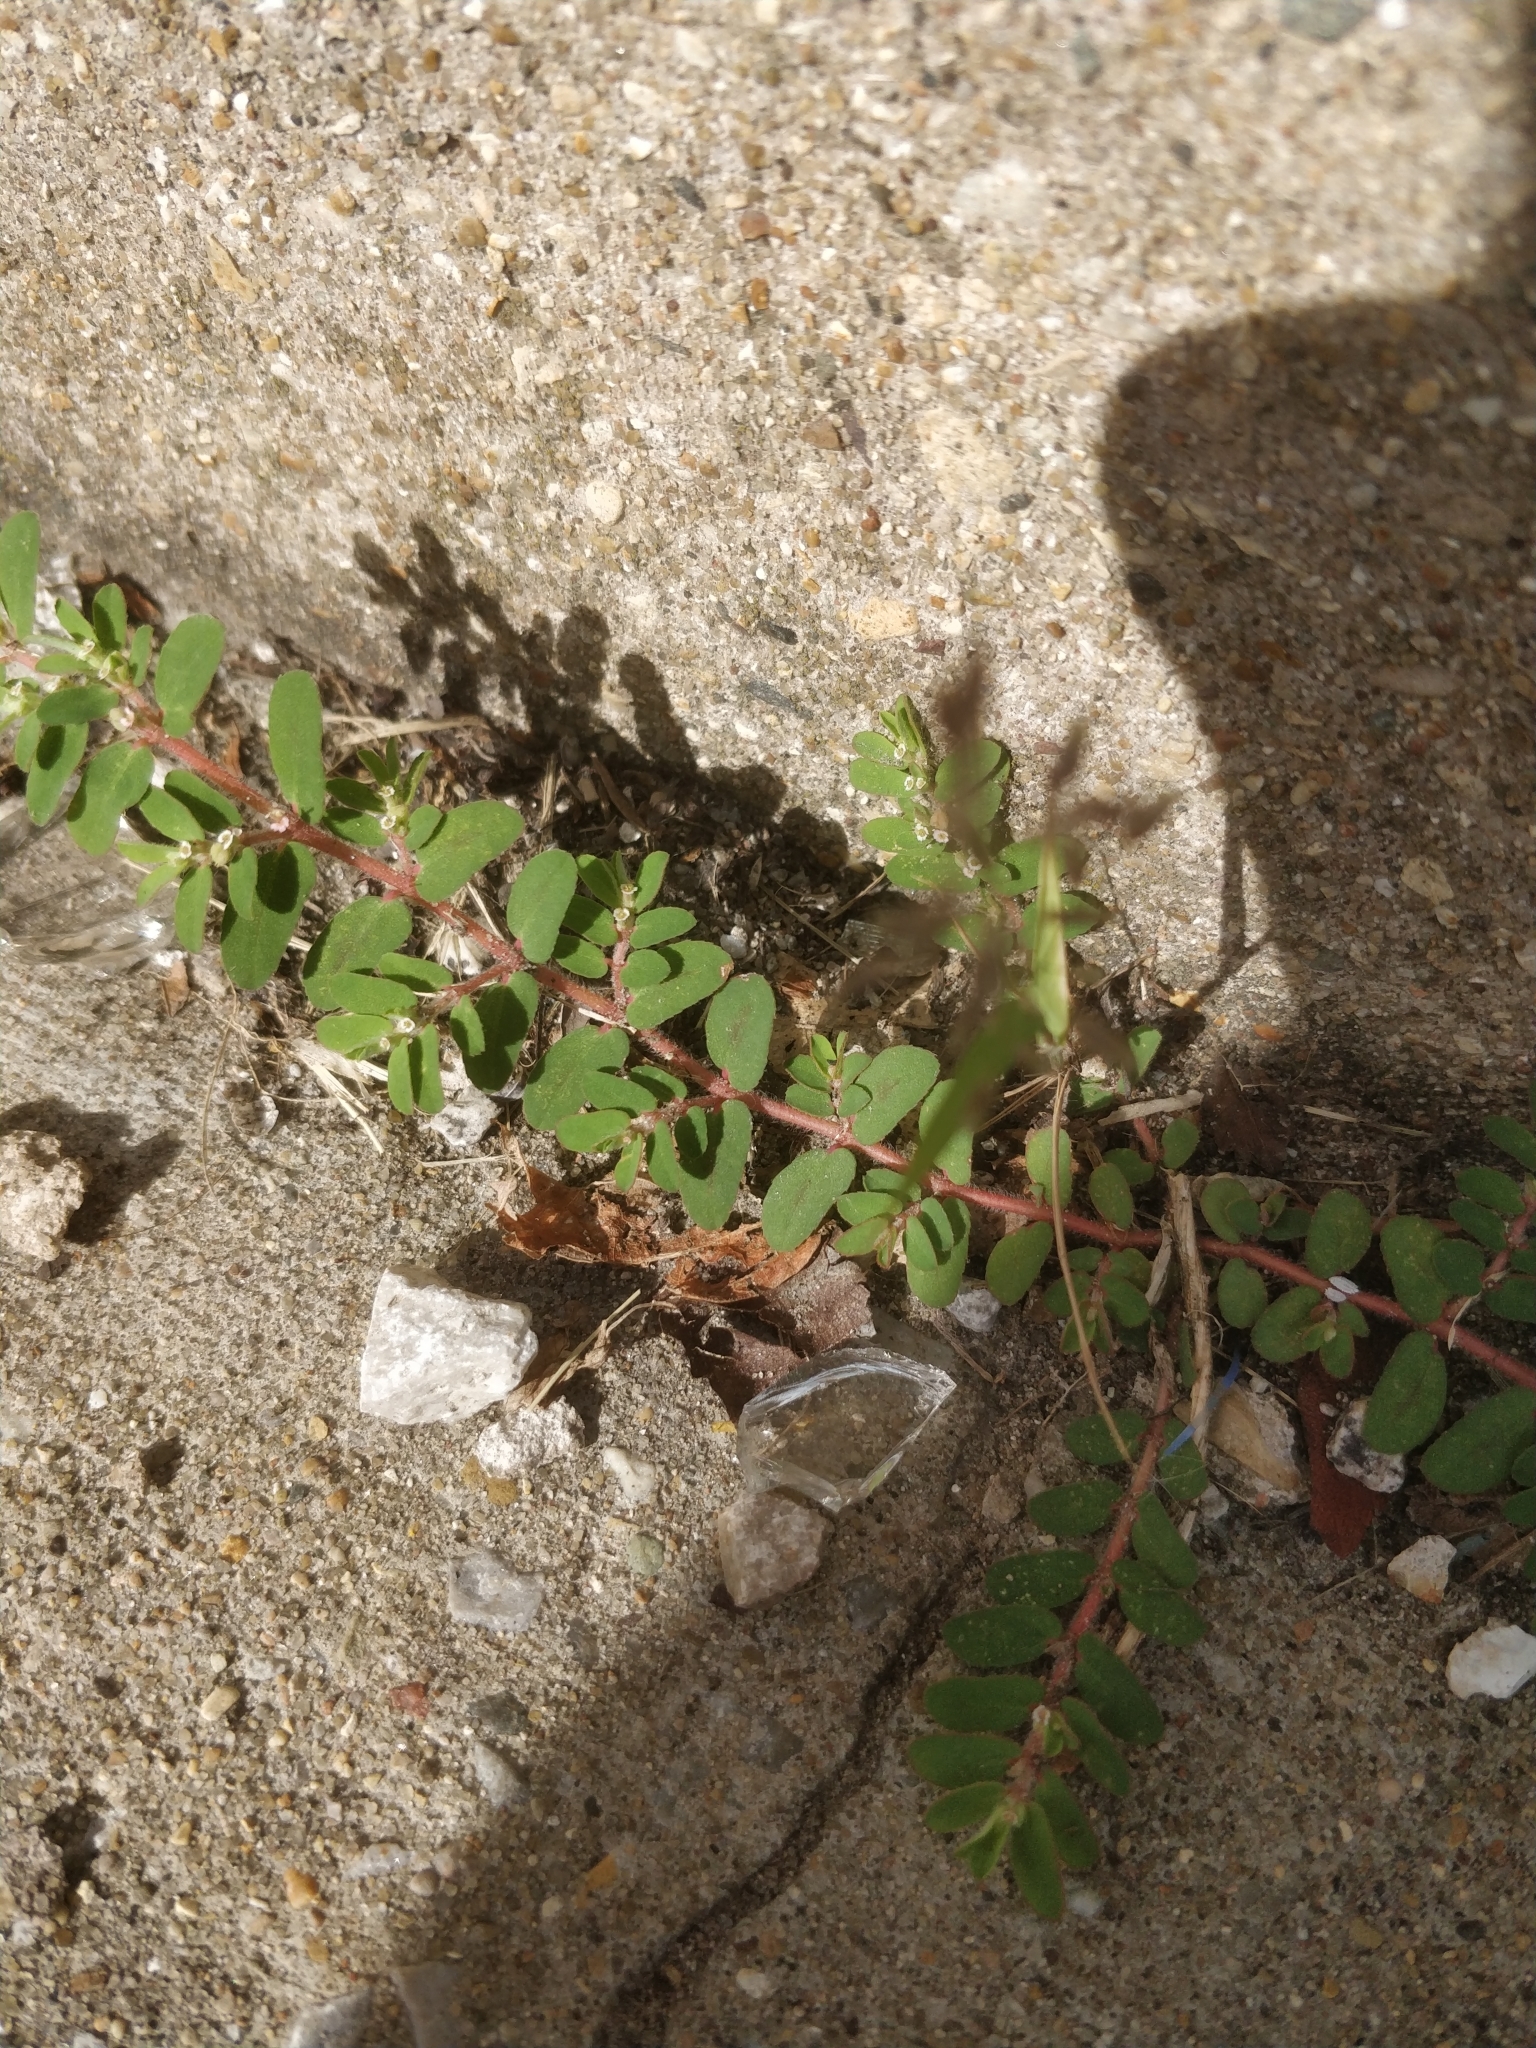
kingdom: Plantae
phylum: Tracheophyta
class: Magnoliopsida
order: Malpighiales
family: Euphorbiaceae
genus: Euphorbia
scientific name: Euphorbia maculata
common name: Spotted spurge
